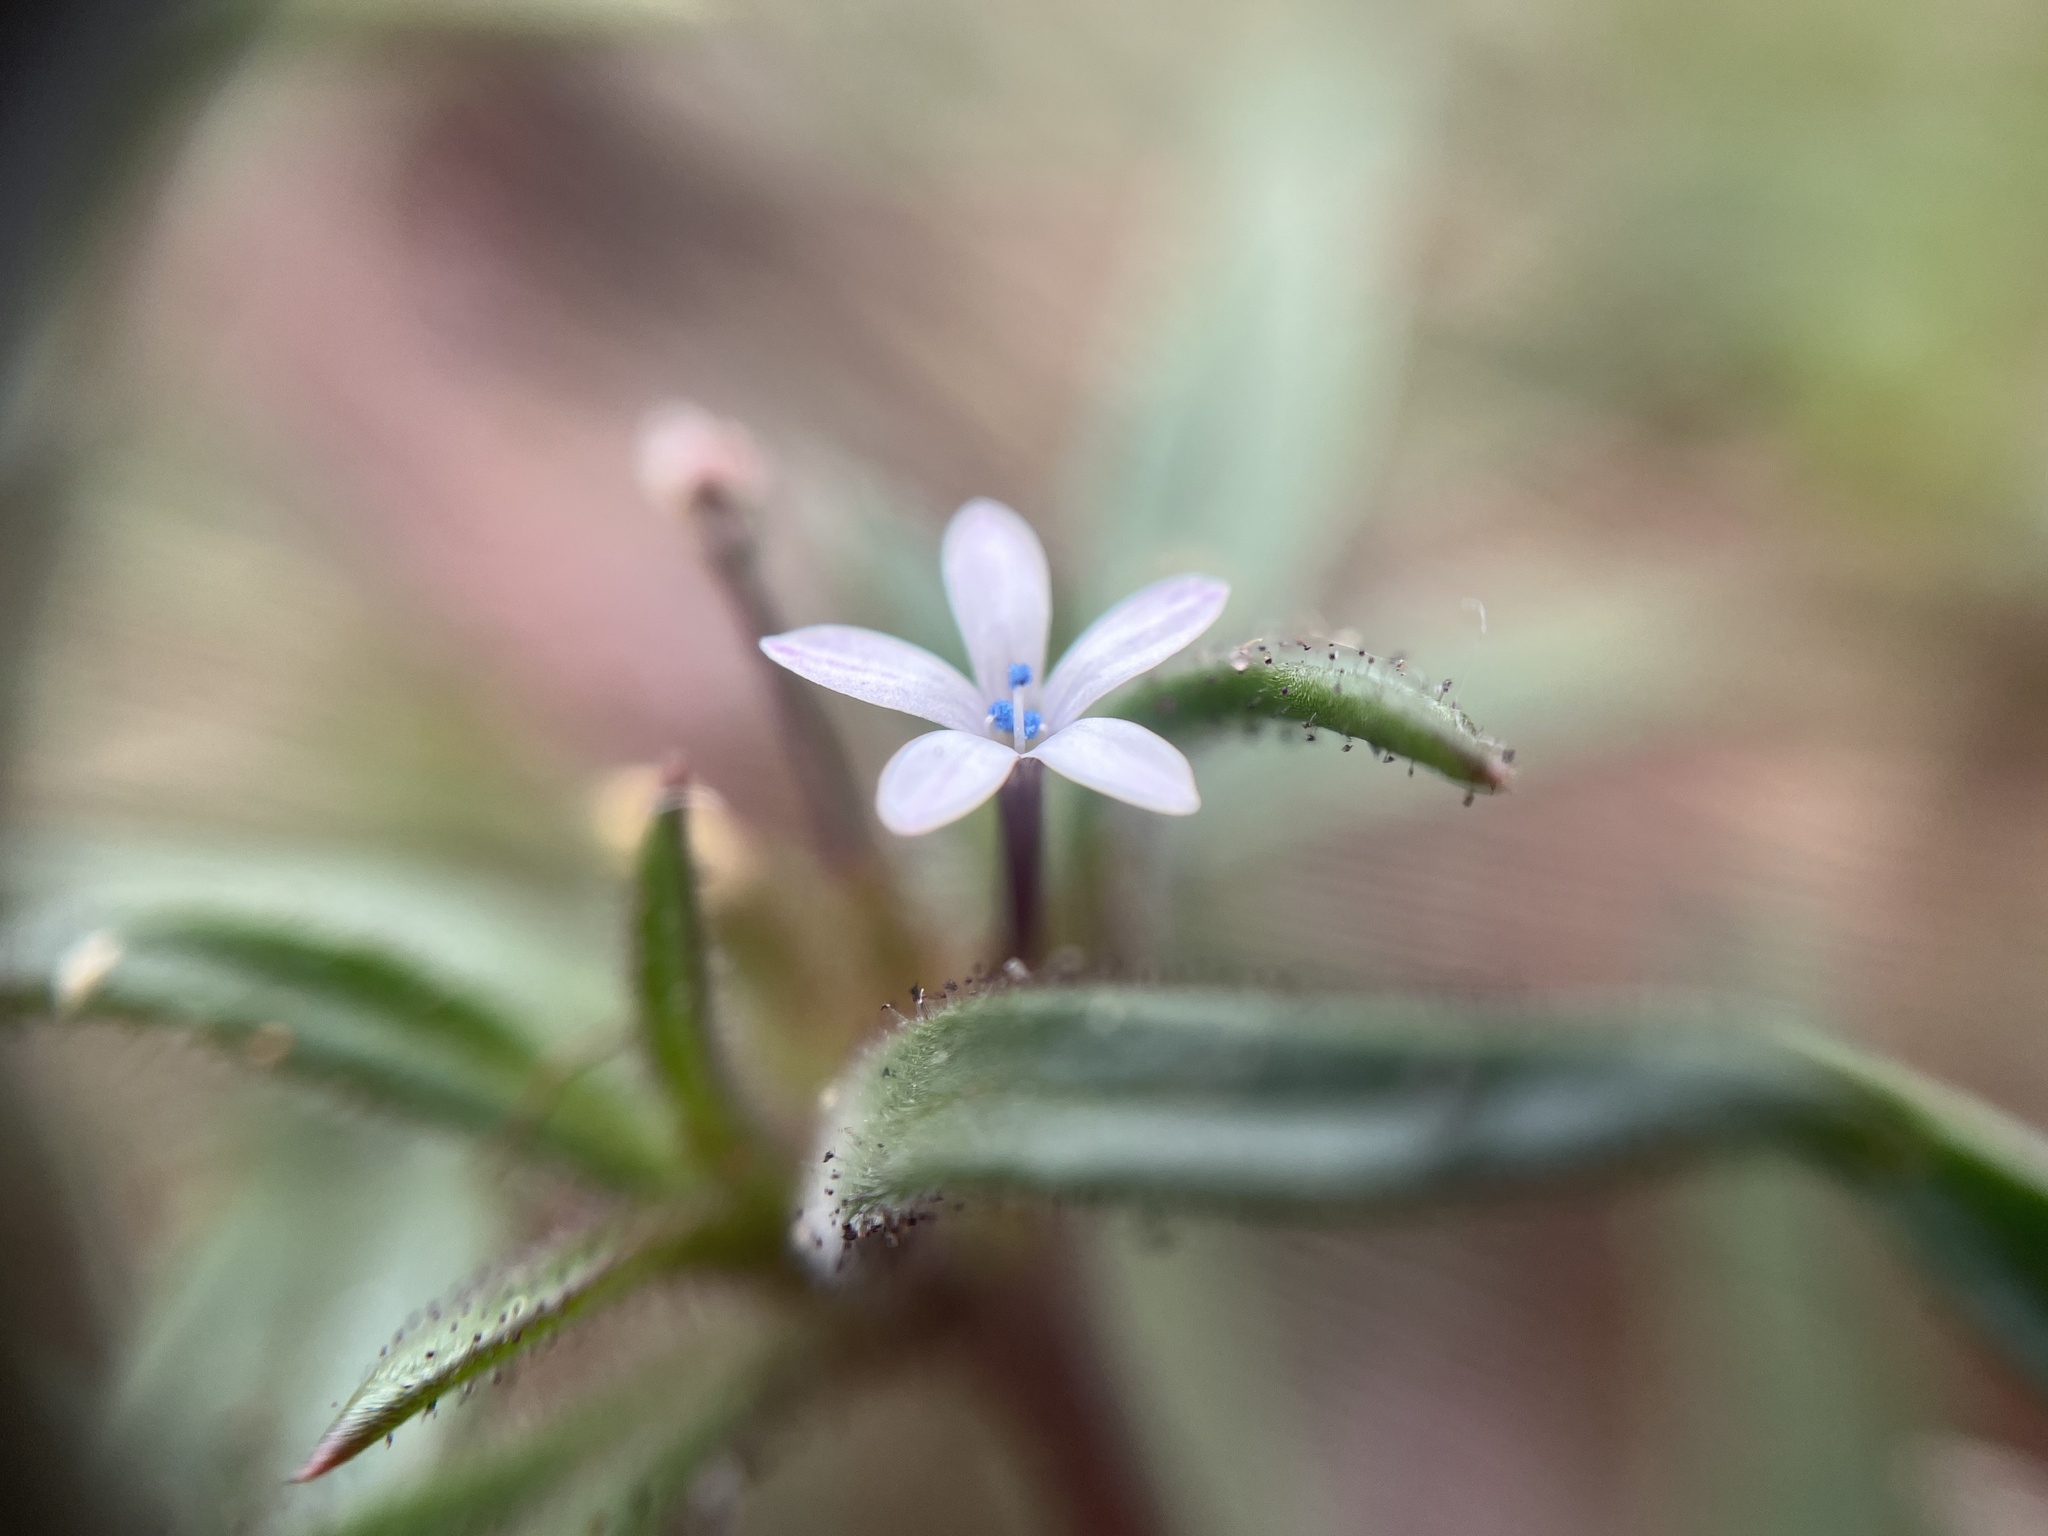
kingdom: Plantae
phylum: Tracheophyta
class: Magnoliopsida
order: Ericales
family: Polemoniaceae
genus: Collomia
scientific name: Collomia tinctoria
